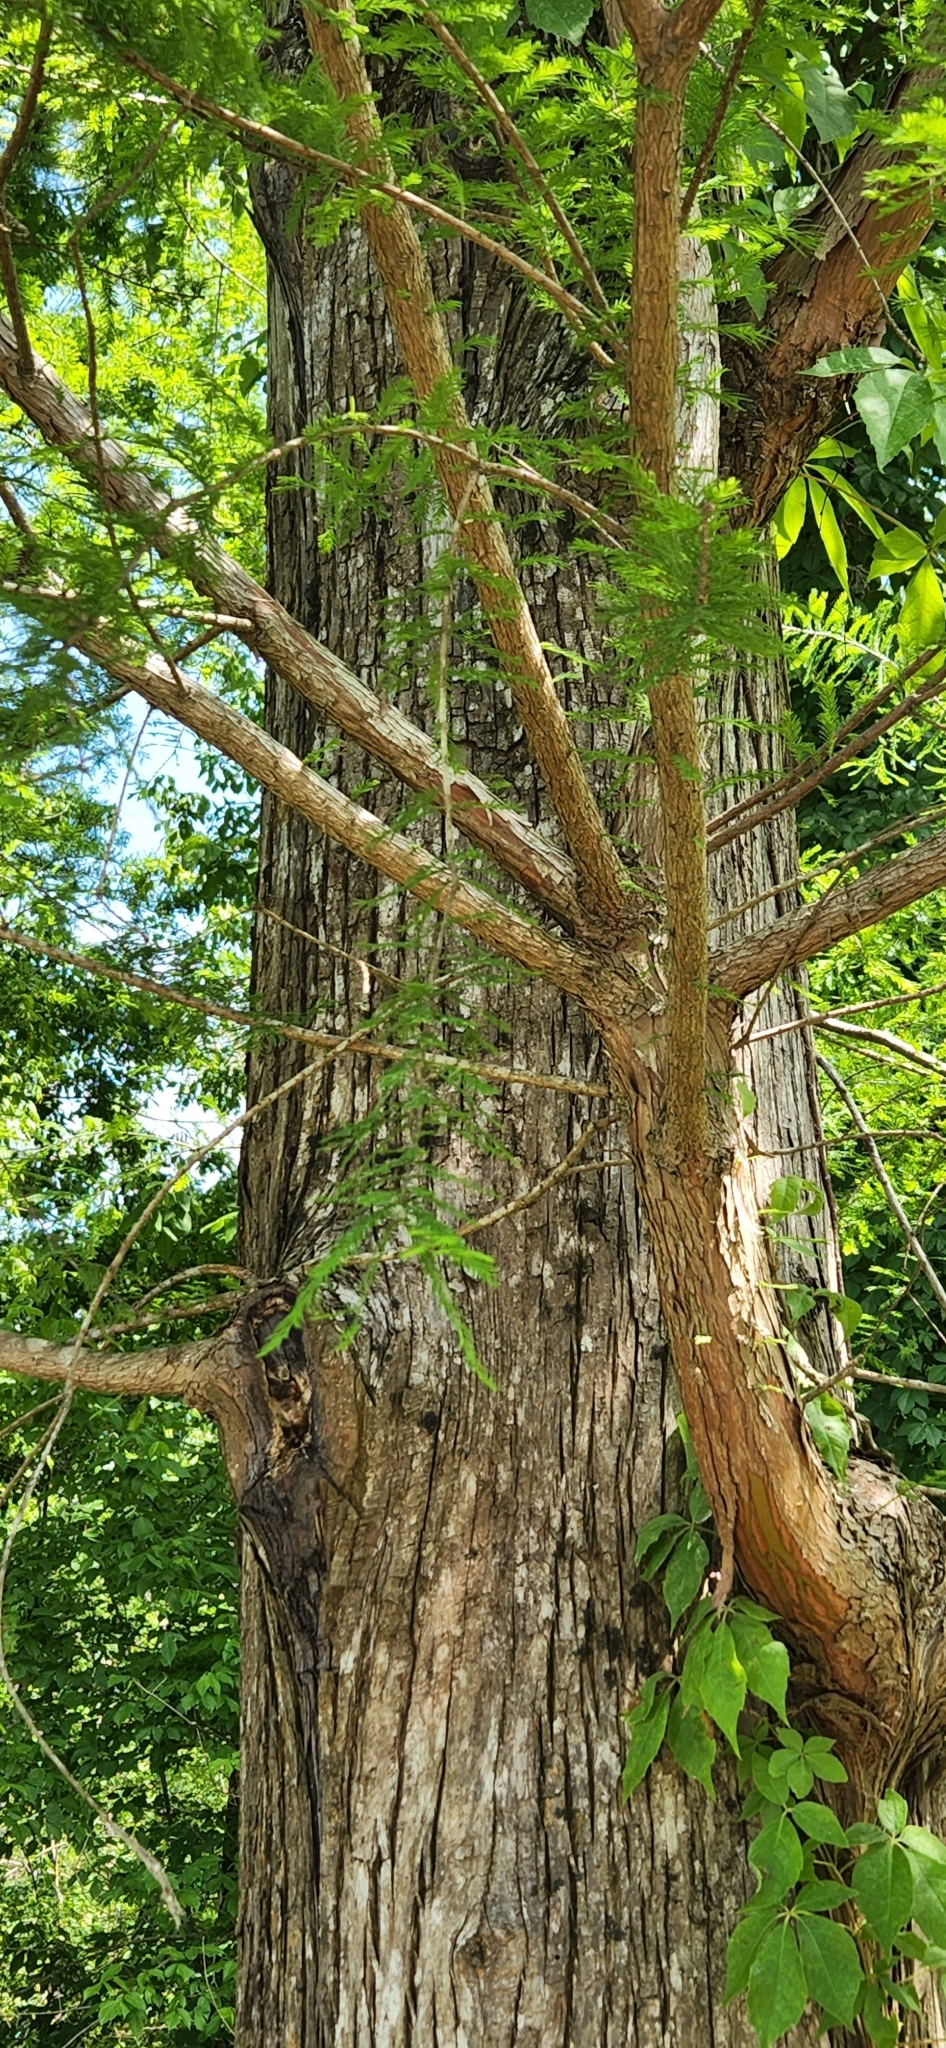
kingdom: Plantae
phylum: Tracheophyta
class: Pinopsida
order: Pinales
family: Cupressaceae
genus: Taxodium
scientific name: Taxodium distichum
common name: Bald cypress
